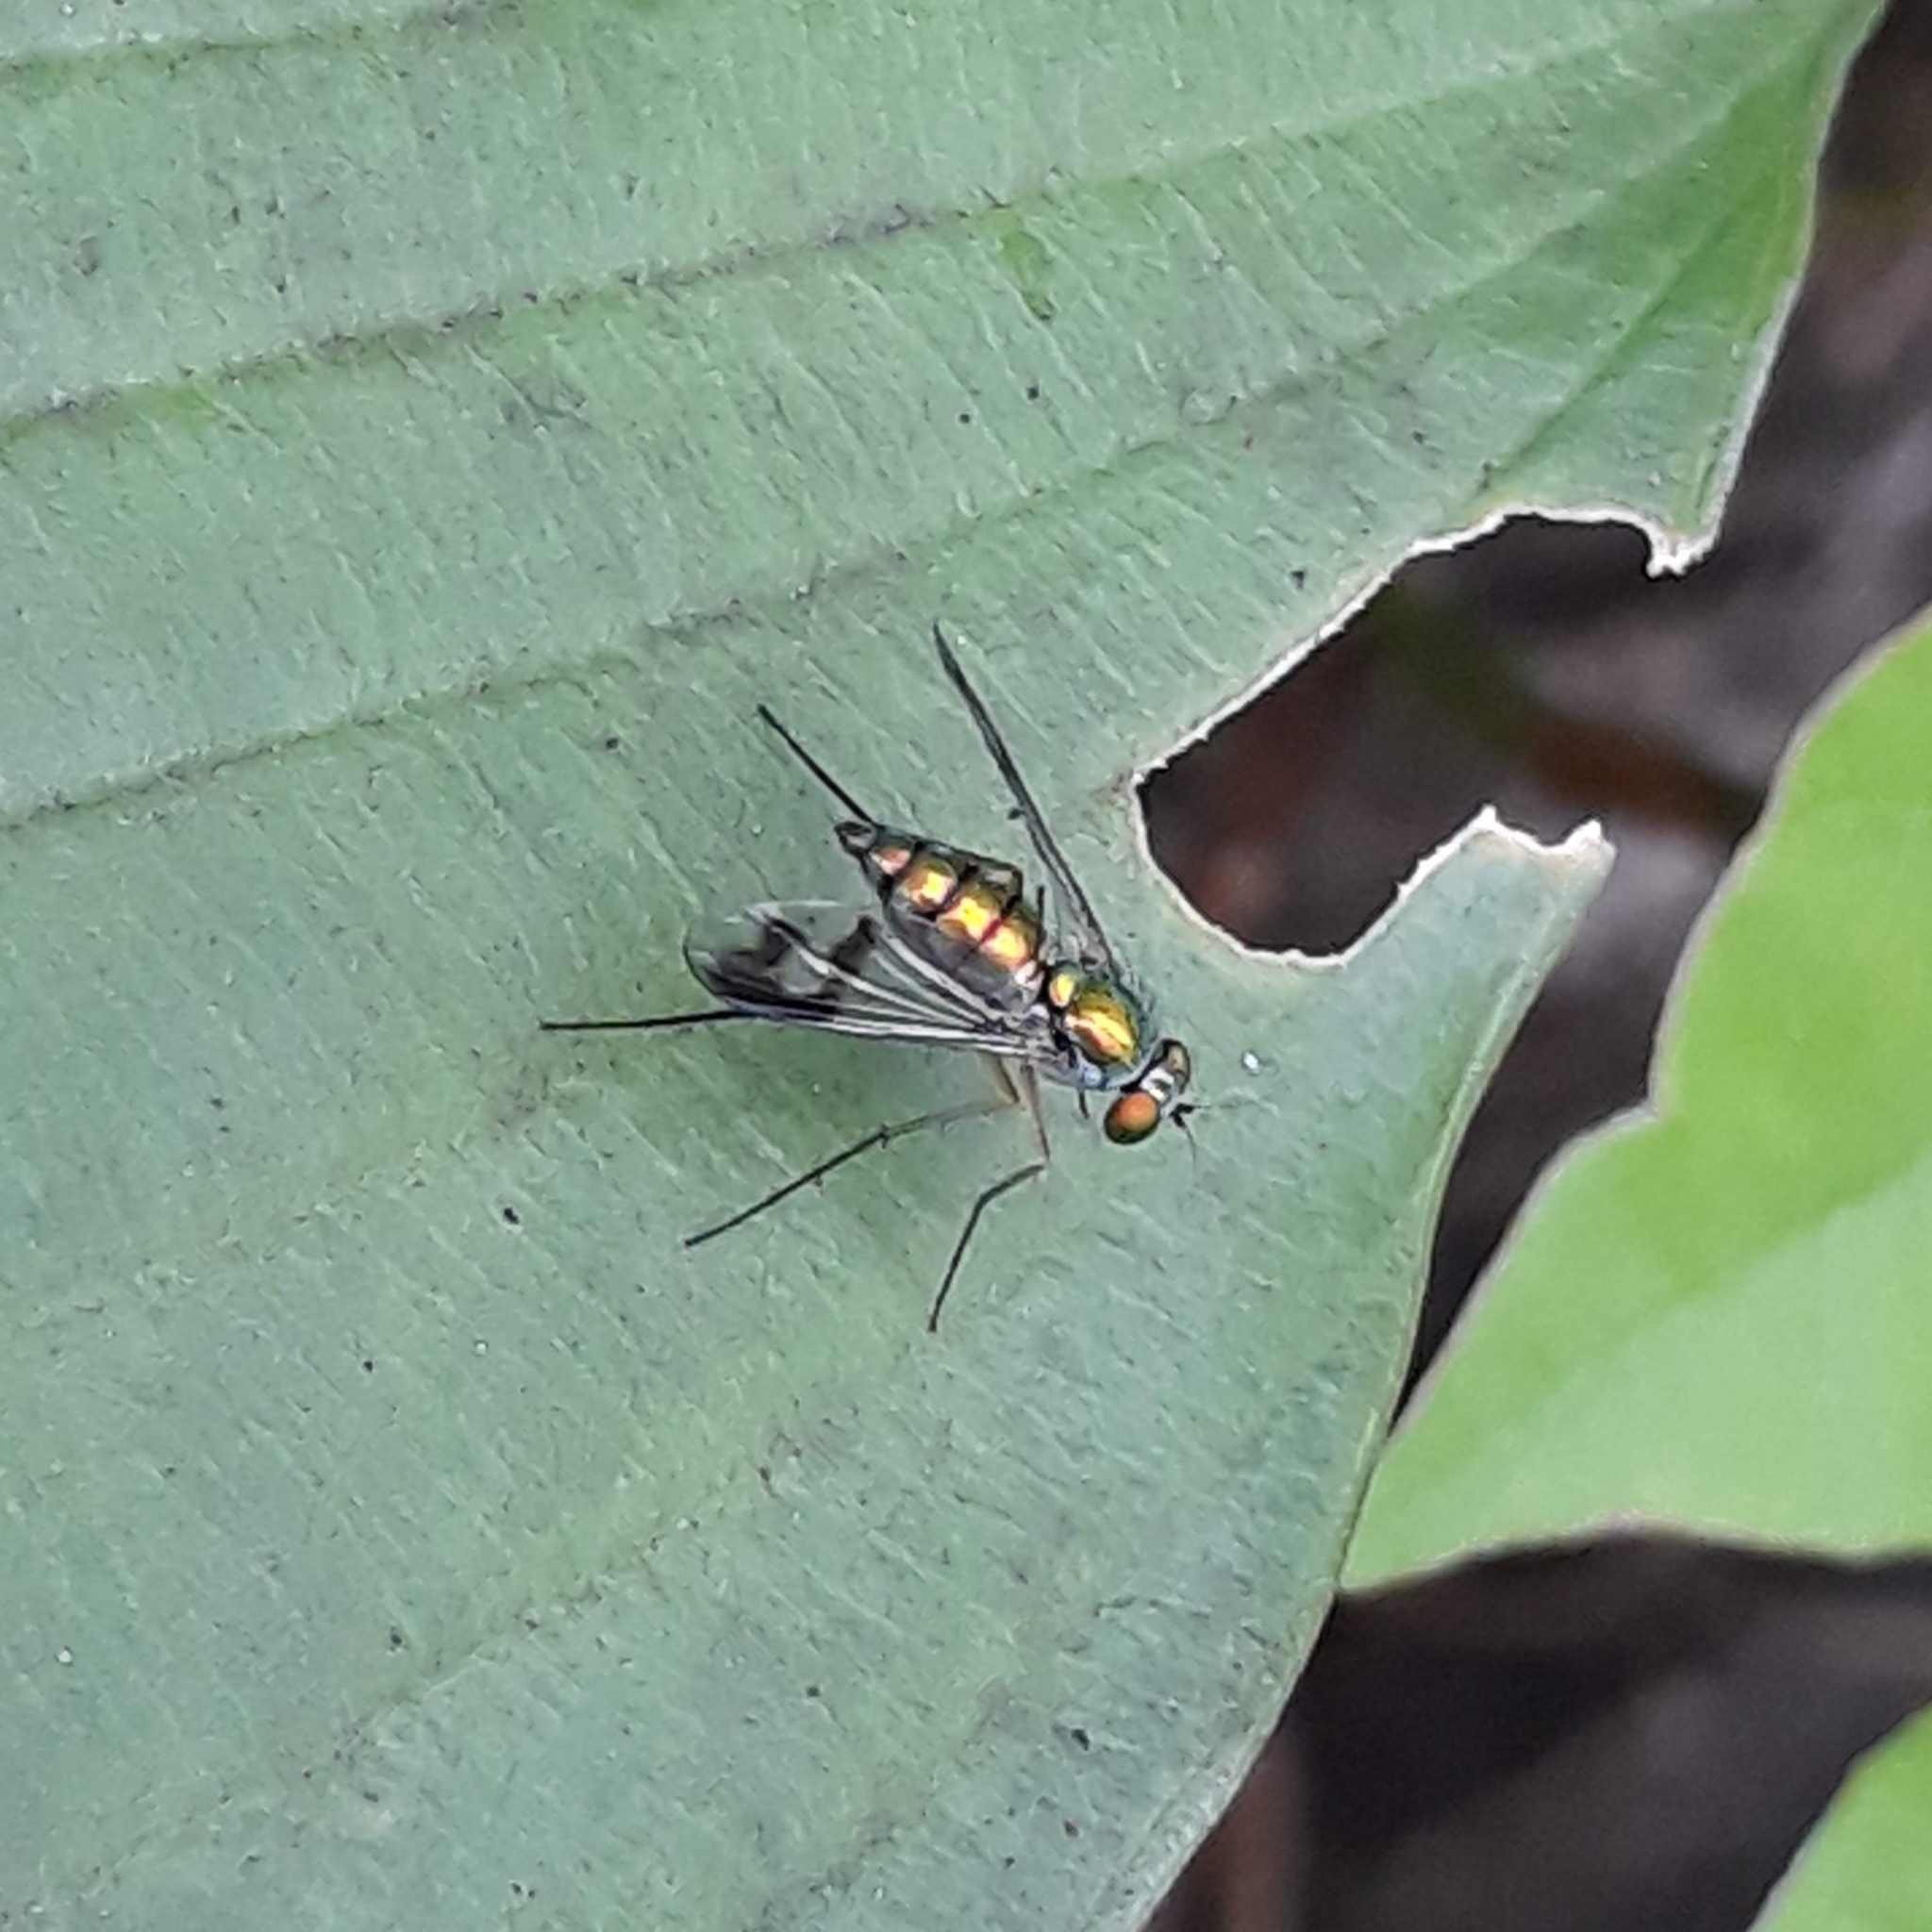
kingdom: Animalia
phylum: Arthropoda
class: Insecta
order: Diptera
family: Dolichopodidae
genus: Condylostylus
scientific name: Condylostylus
